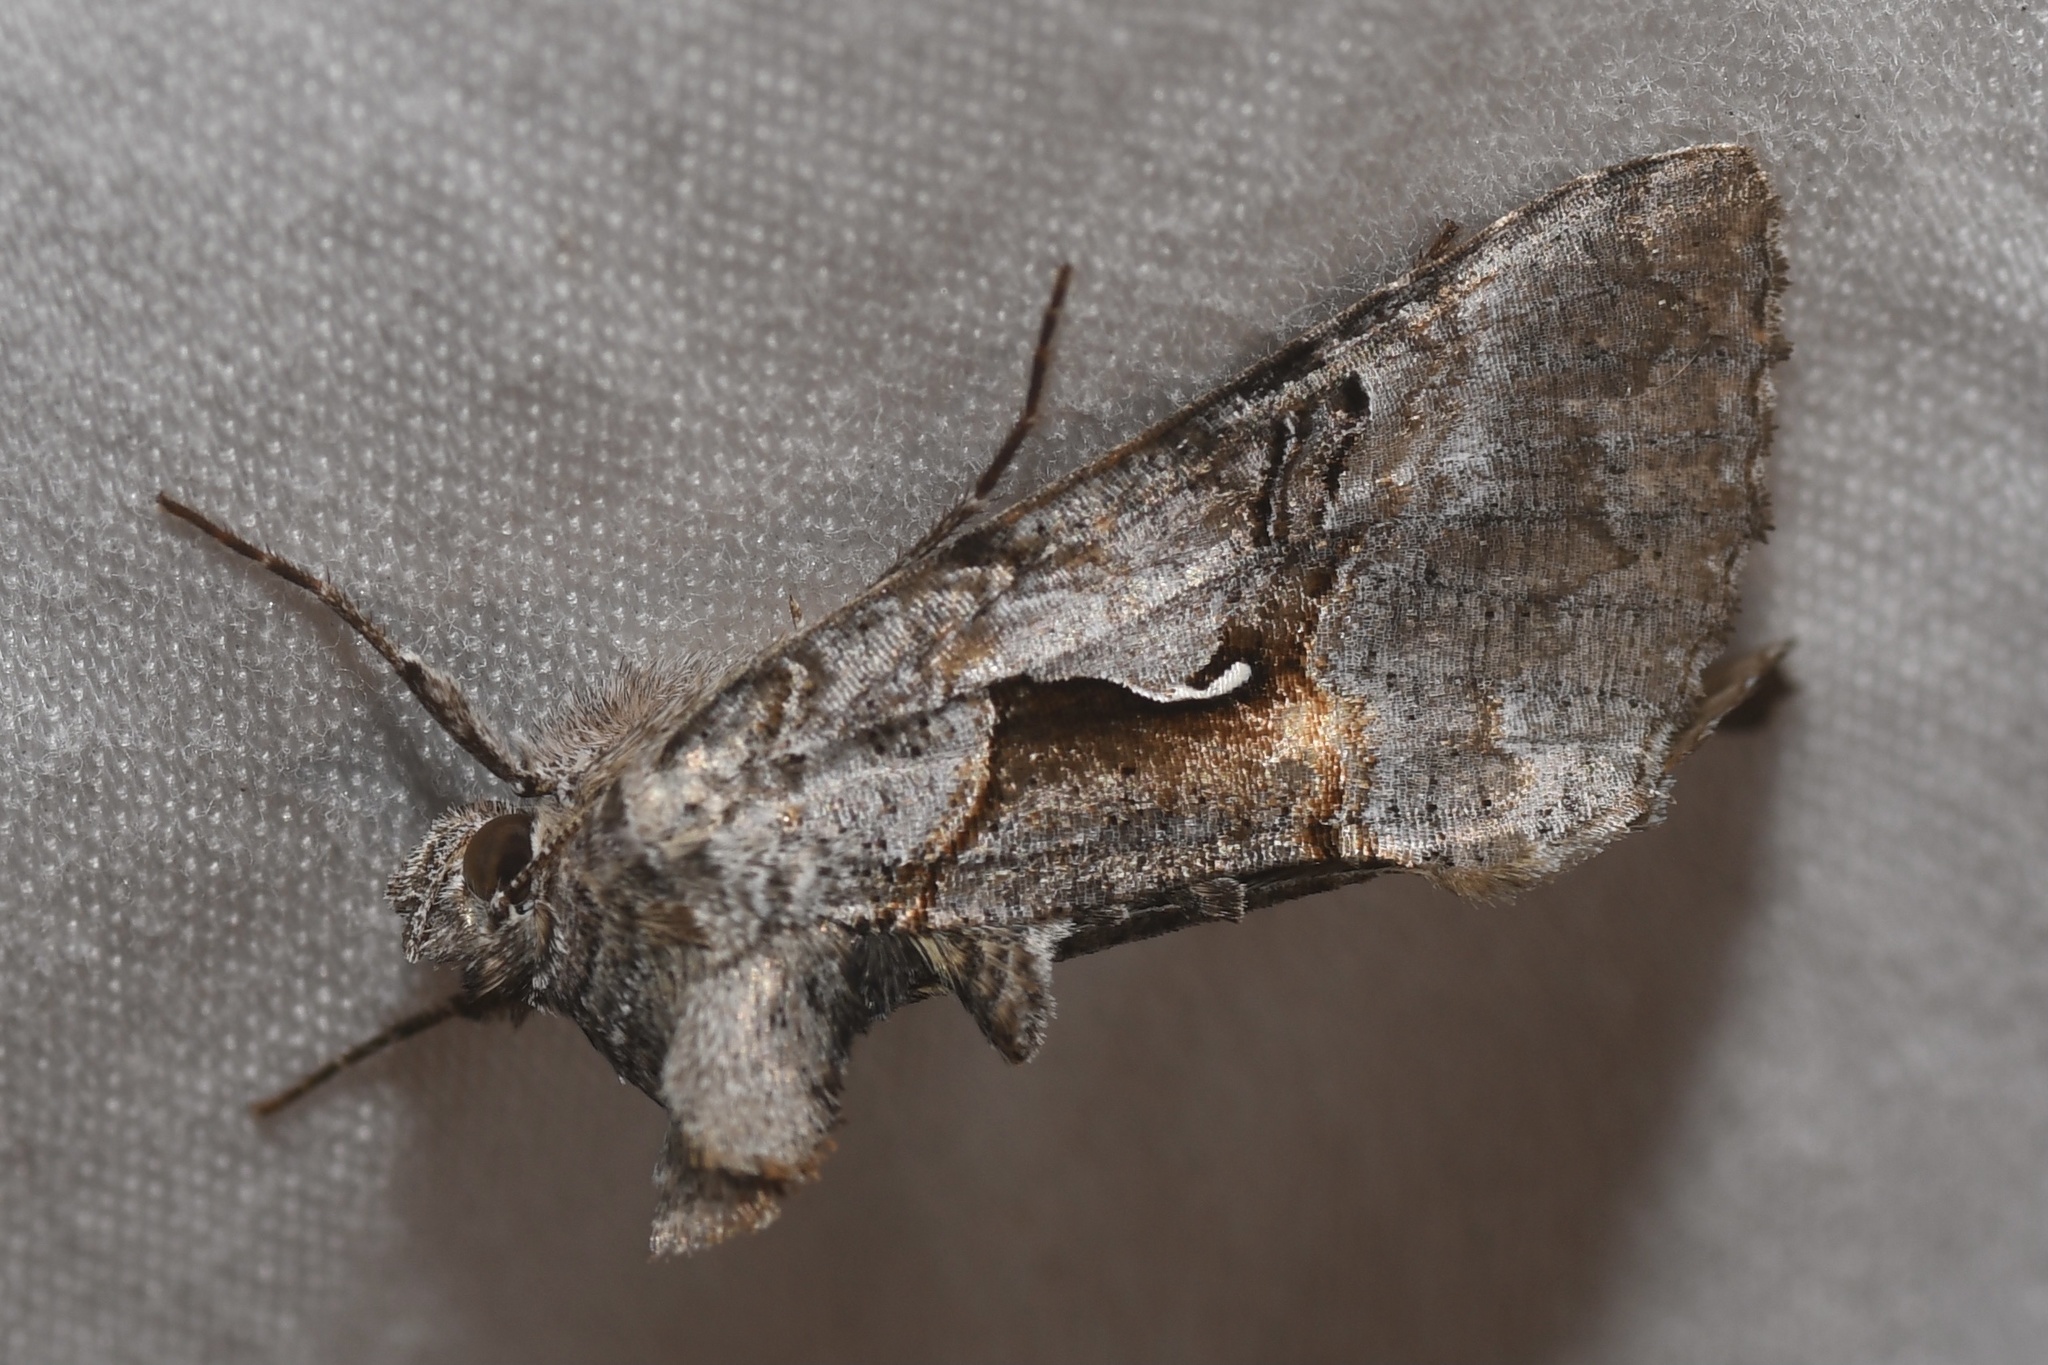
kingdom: Animalia
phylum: Arthropoda
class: Insecta
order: Lepidoptera
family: Noctuidae
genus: Syngrapha
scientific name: Syngrapha epigaea
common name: Epigaea looper moth
